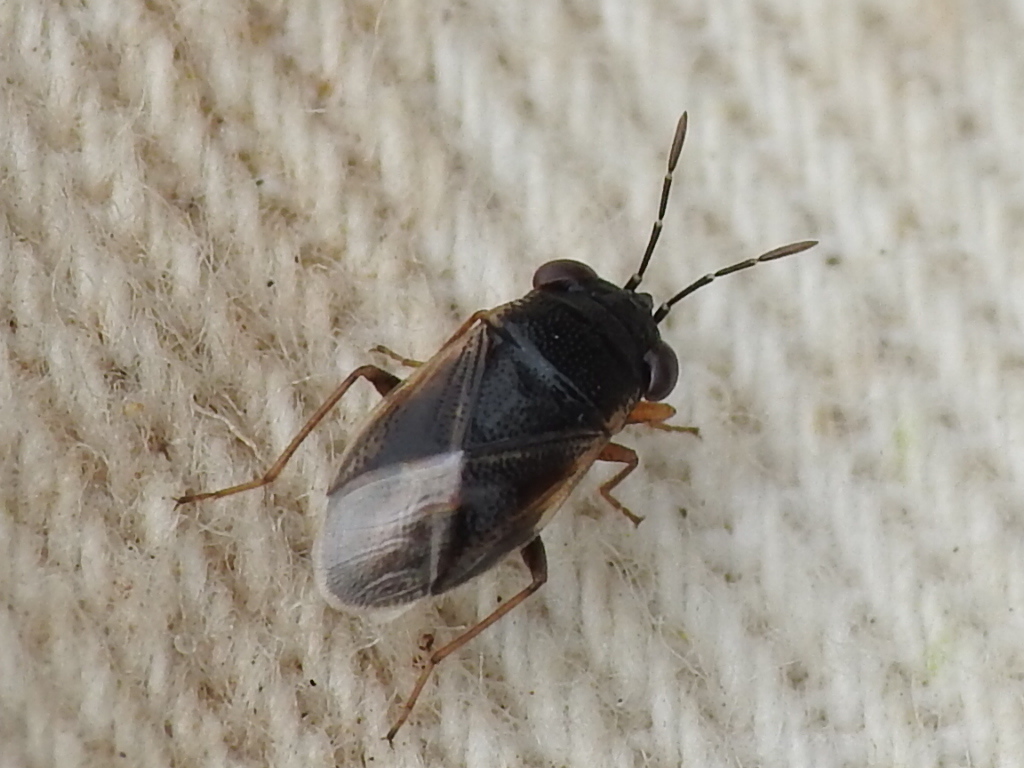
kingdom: Animalia
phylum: Arthropoda
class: Insecta
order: Hemiptera
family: Geocoridae
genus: Geocoris
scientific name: Geocoris uliginosus
